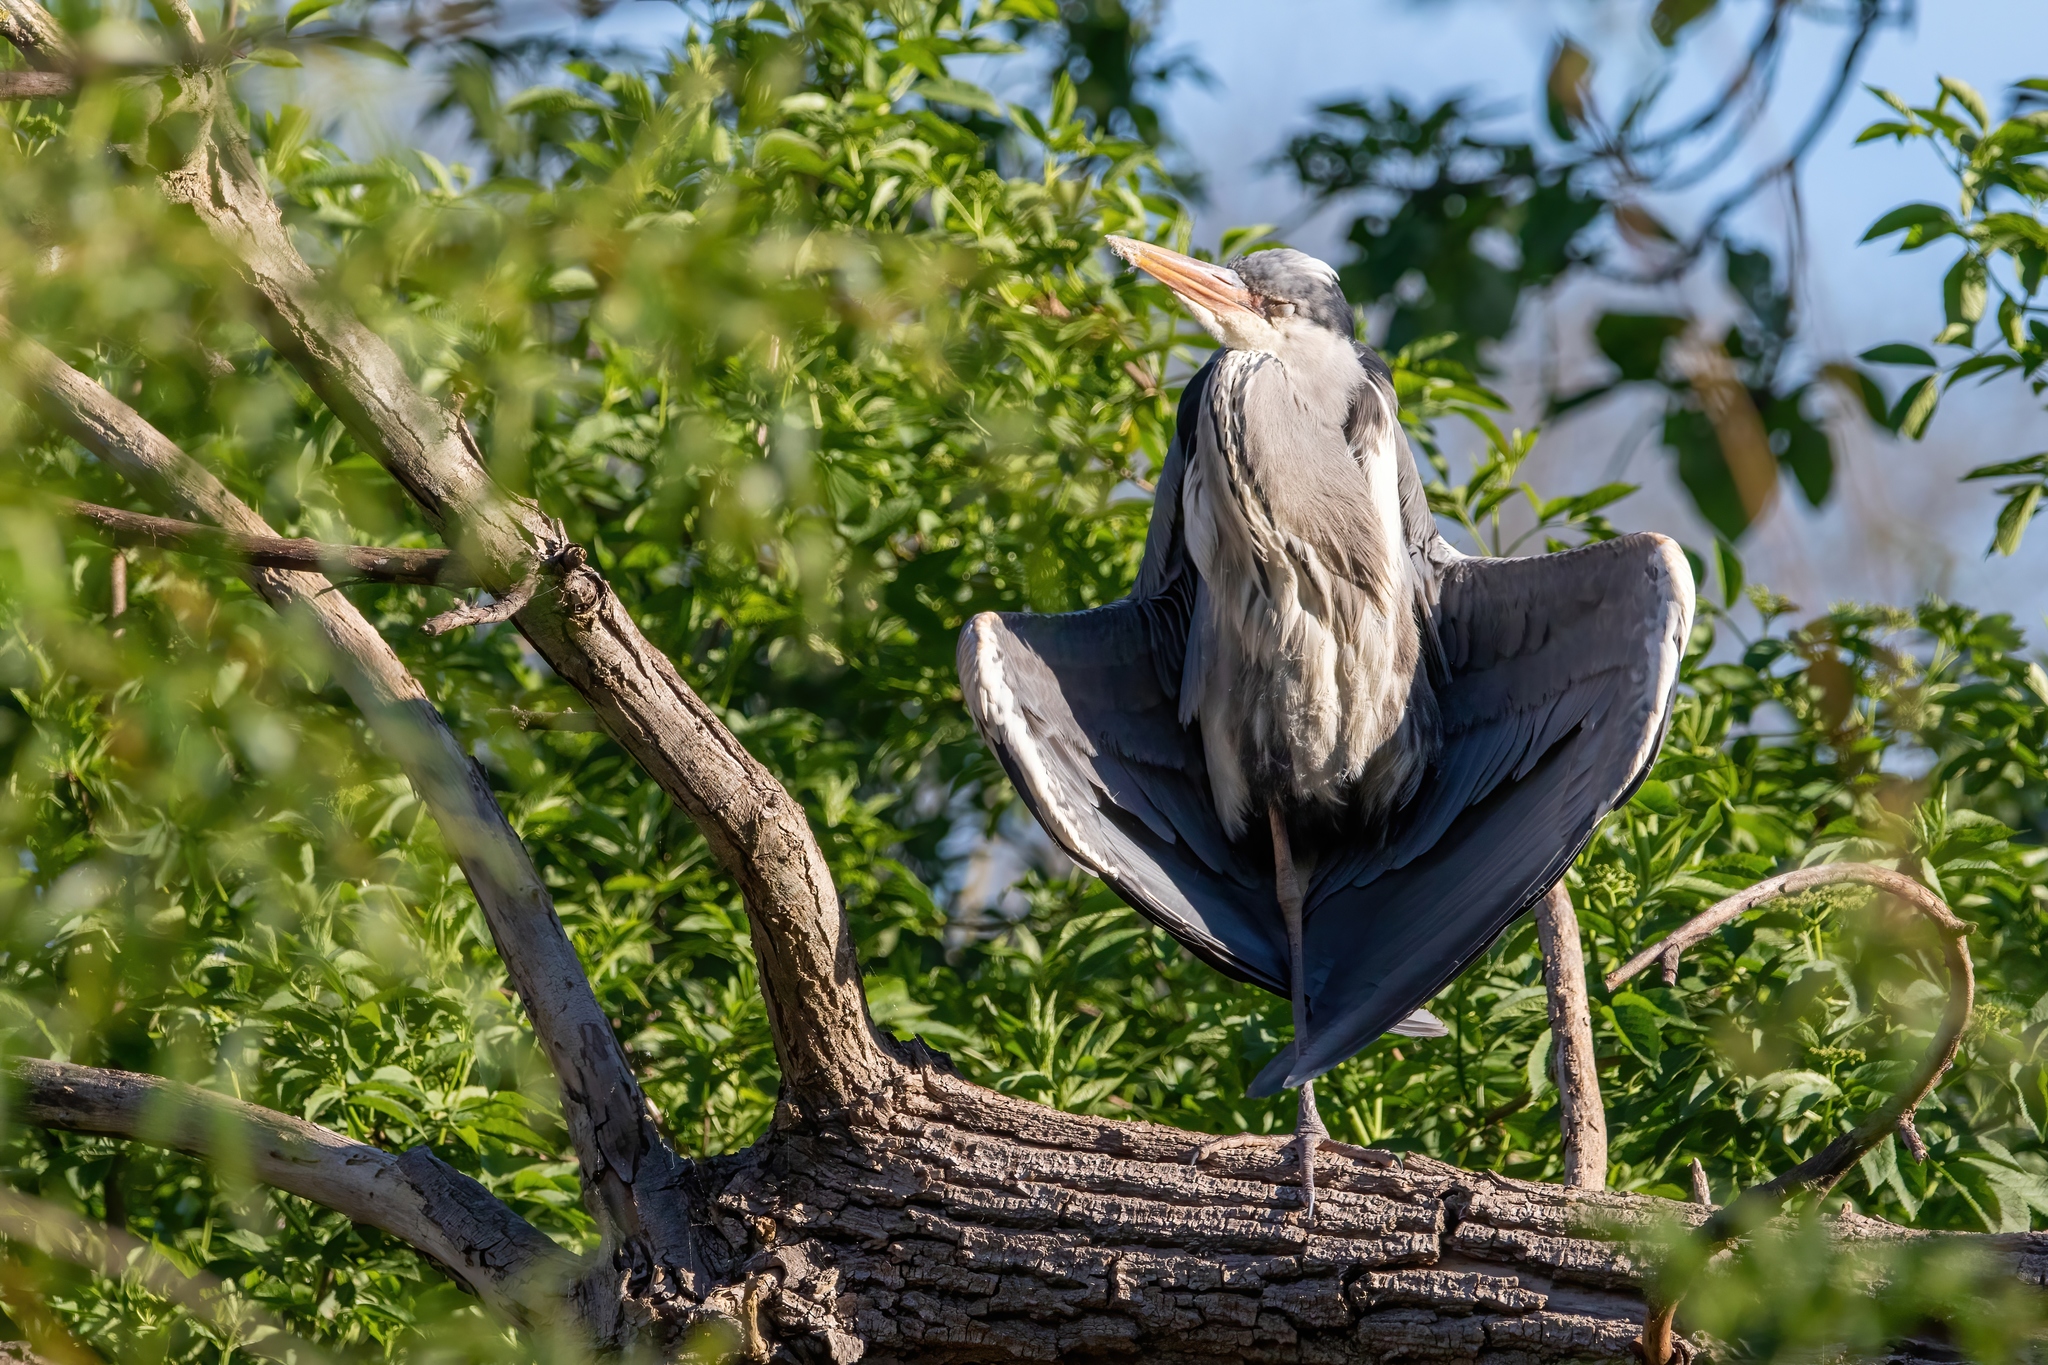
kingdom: Animalia
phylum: Chordata
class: Aves
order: Pelecaniformes
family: Ardeidae
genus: Ardea
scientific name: Ardea cinerea
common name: Grey heron
